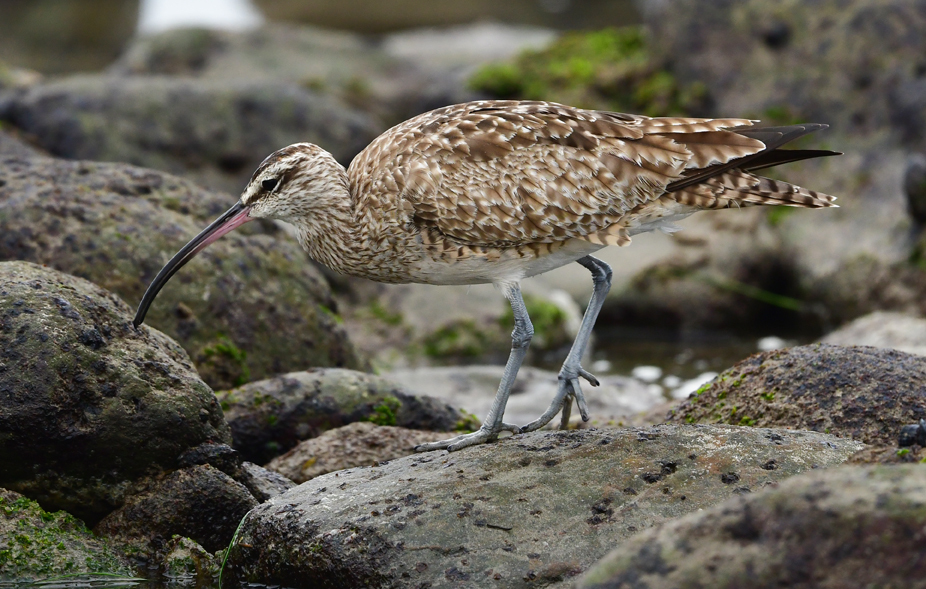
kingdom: Animalia
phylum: Chordata
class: Aves
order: Charadriiformes
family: Scolopacidae
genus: Numenius
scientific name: Numenius phaeopus
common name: Whimbrel
